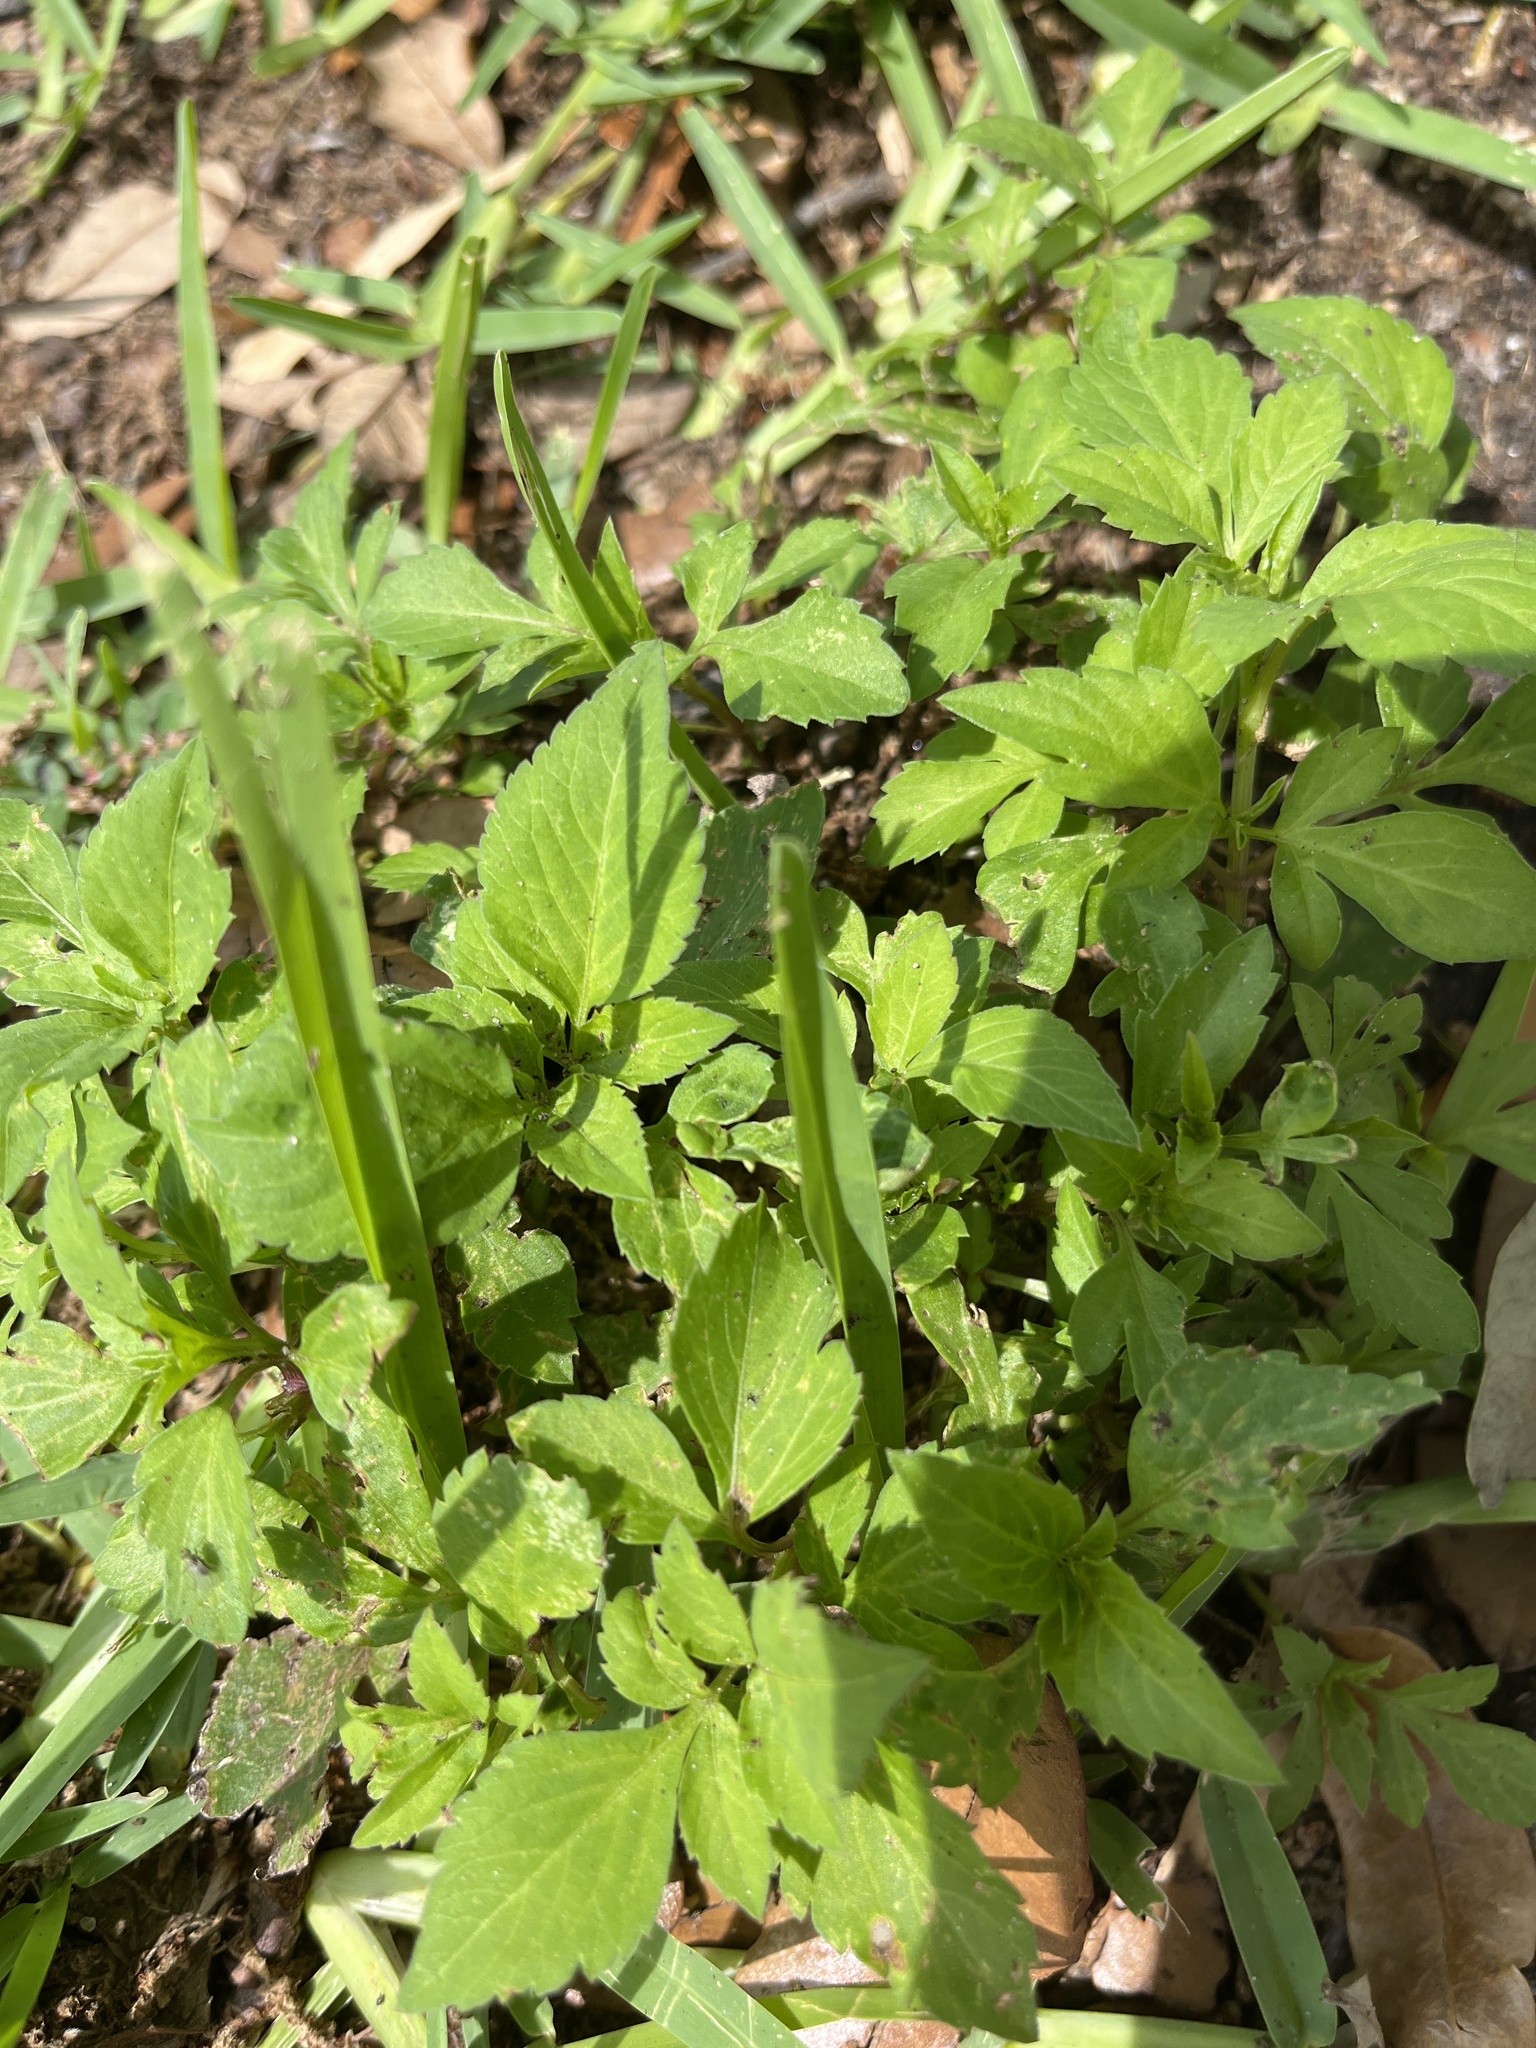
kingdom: Plantae
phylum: Tracheophyta
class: Magnoliopsida
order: Asterales
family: Asteraceae
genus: Bidens
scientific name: Bidens alba
